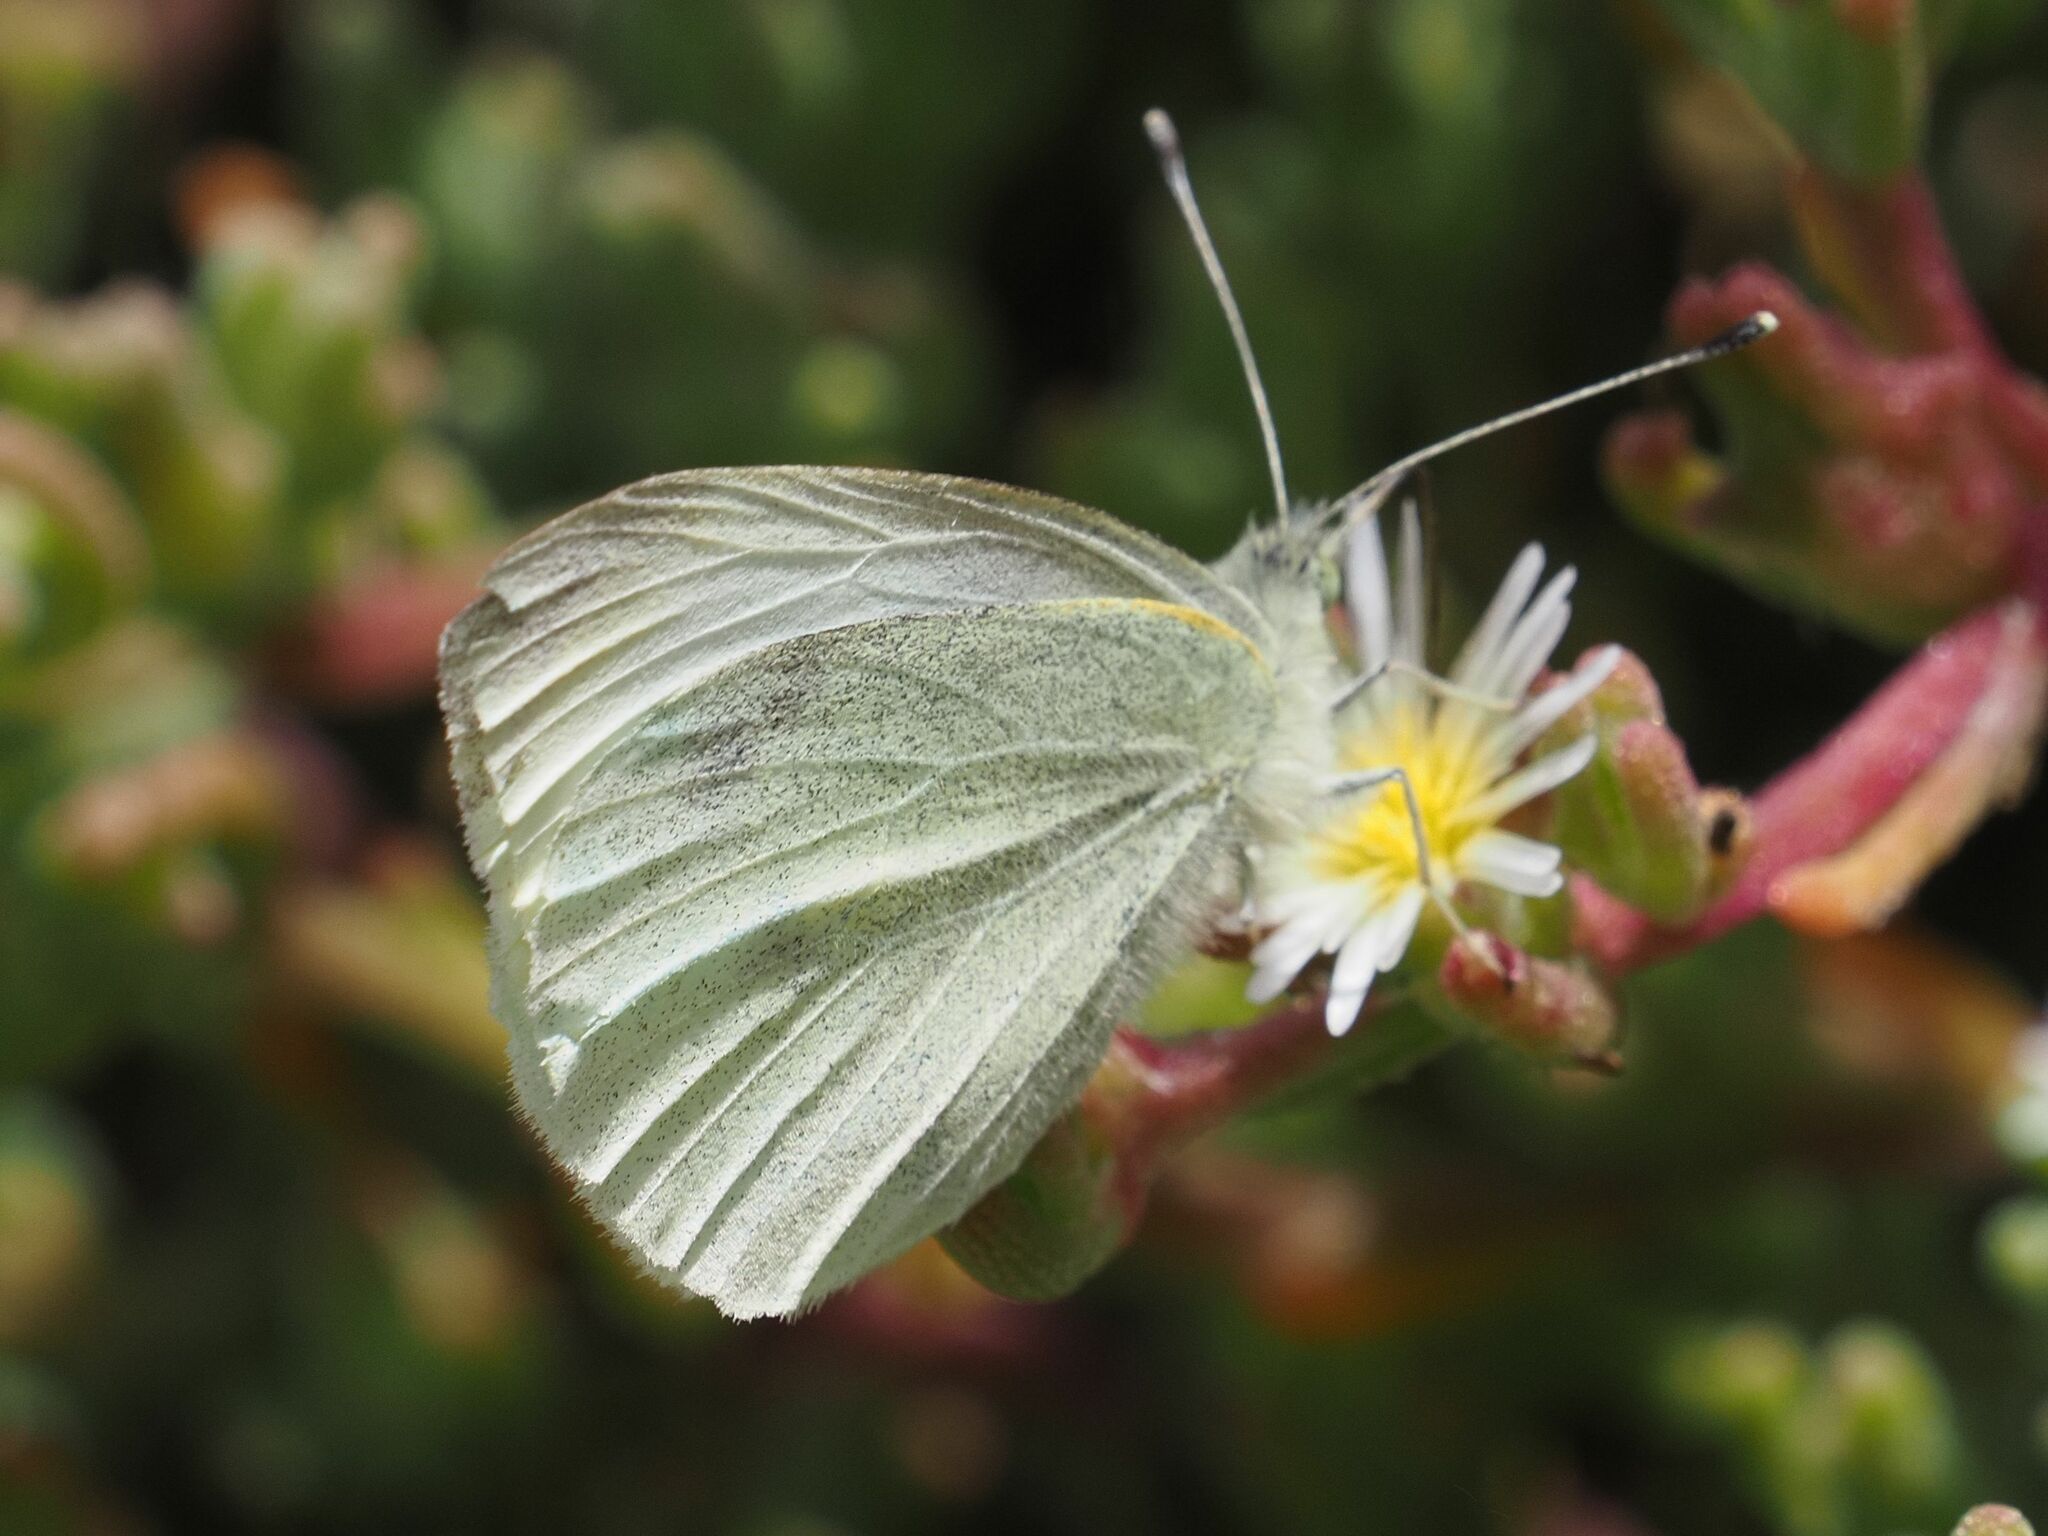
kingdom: Animalia
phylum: Arthropoda
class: Insecta
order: Lepidoptera
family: Pieridae
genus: Pieris
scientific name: Pieris rapae
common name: Small white
